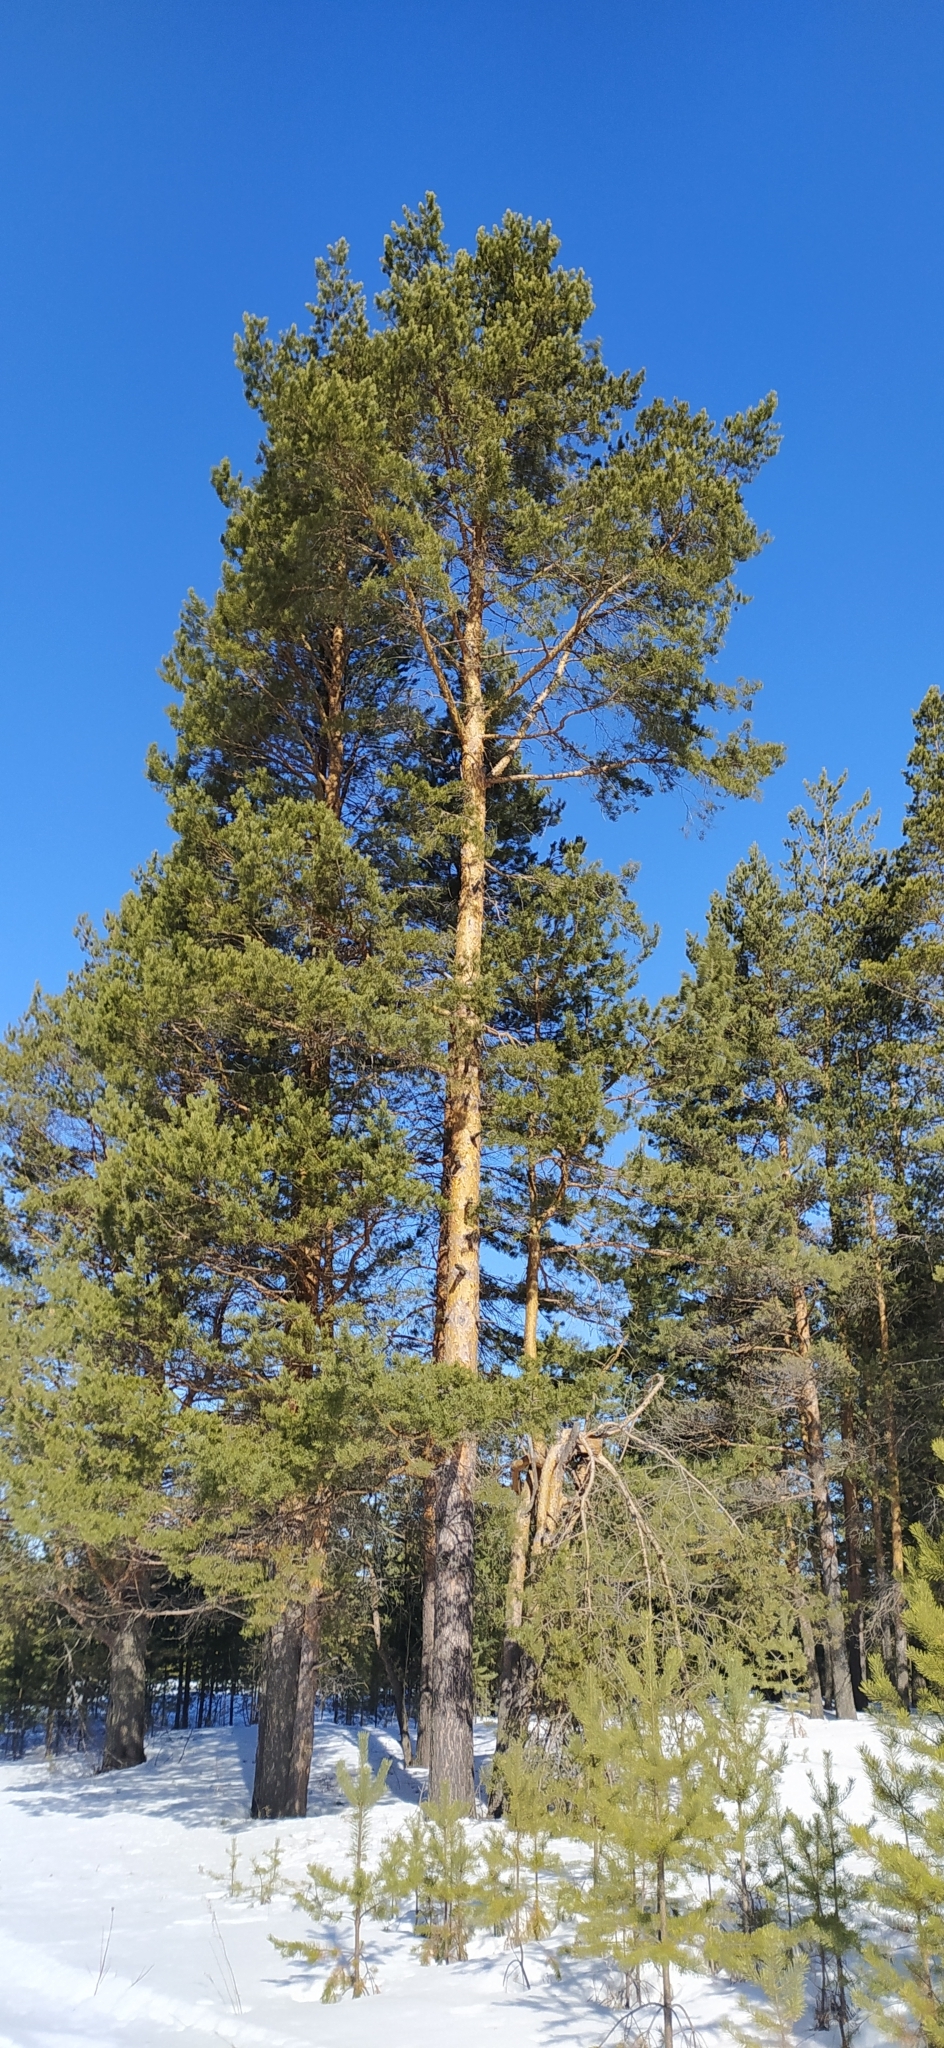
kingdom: Plantae
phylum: Tracheophyta
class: Pinopsida
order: Pinales
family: Pinaceae
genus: Pinus
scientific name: Pinus sylvestris
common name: Scots pine
